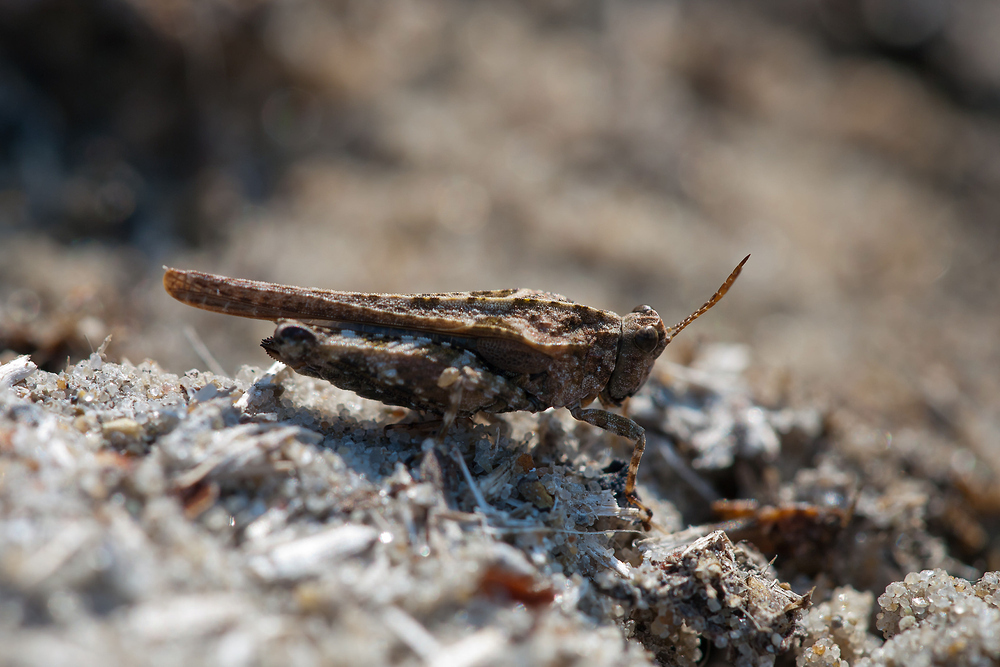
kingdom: Animalia
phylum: Arthropoda
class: Insecta
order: Orthoptera
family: Tetrigidae
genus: Tetrix
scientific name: Tetrix ceperoi
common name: Cepero's ground-hopper
